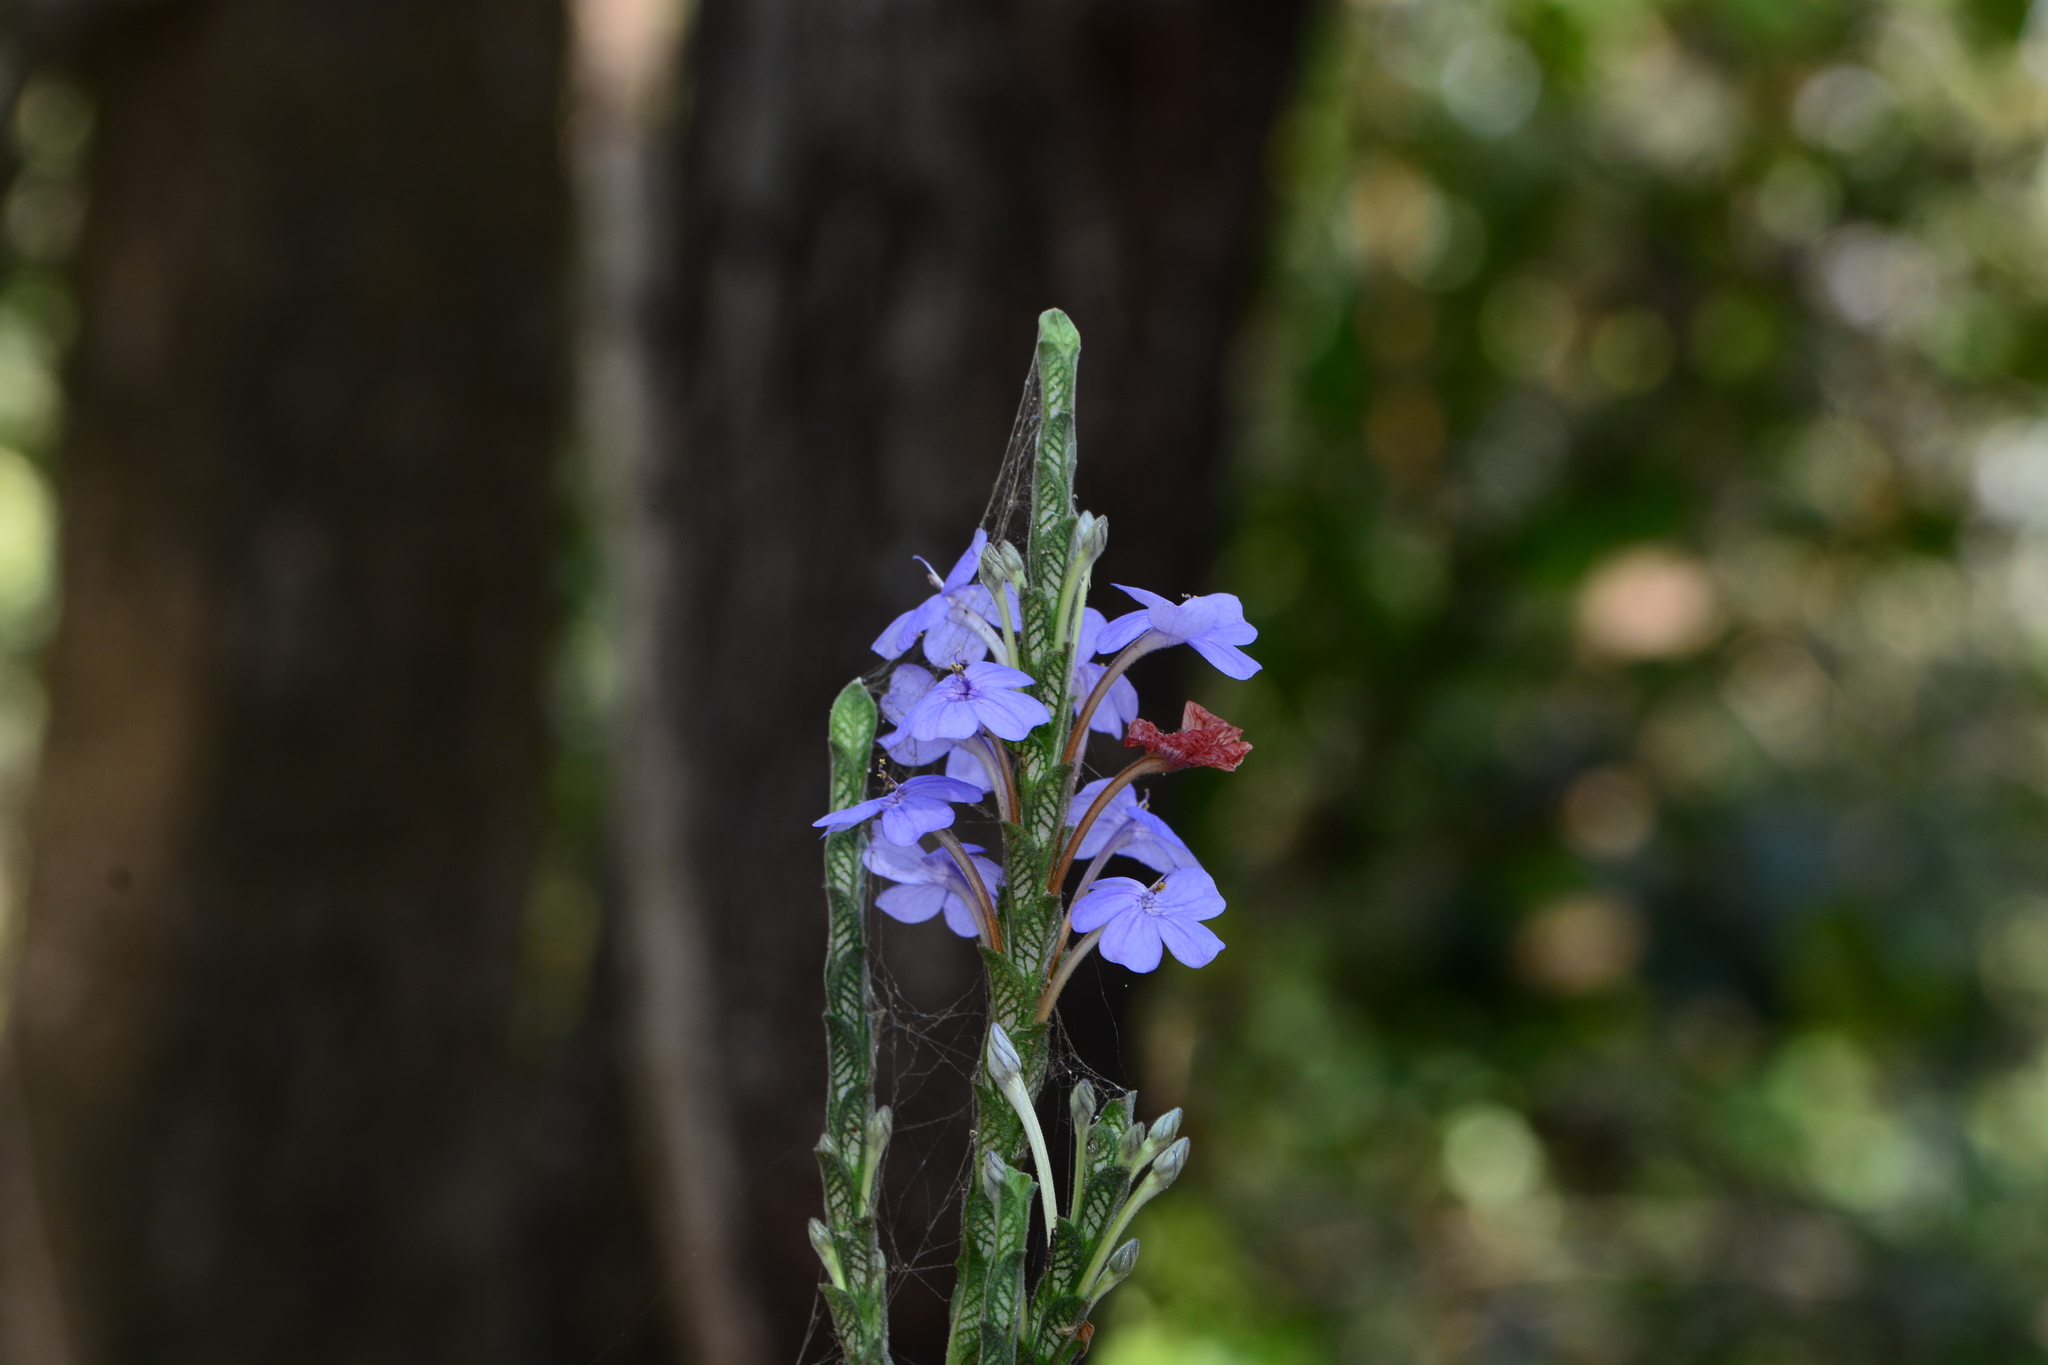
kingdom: Plantae
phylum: Tracheophyta
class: Magnoliopsida
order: Lamiales
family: Acanthaceae
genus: Eranthemum
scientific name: Eranthemum roseum
